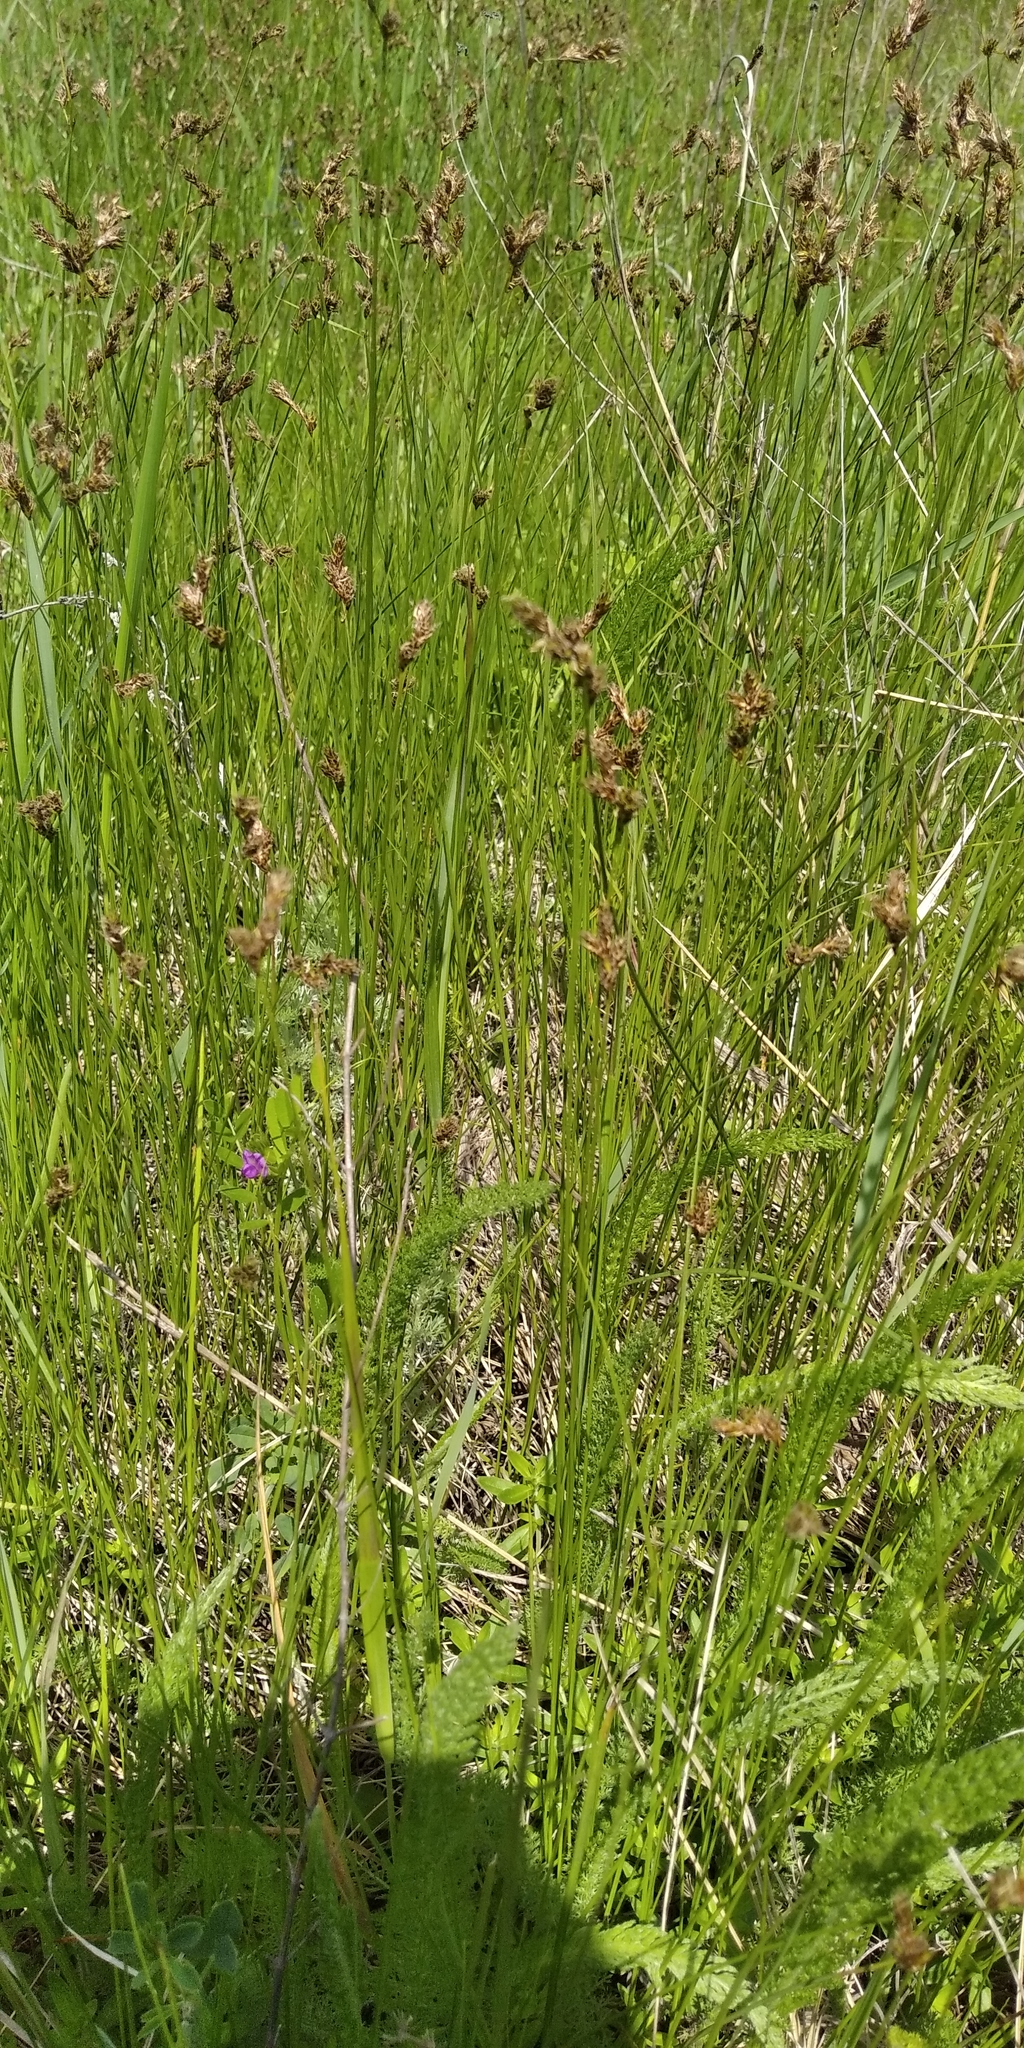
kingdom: Plantae
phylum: Tracheophyta
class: Liliopsida
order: Poales
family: Cyperaceae
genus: Carex
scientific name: Carex praecox
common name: Early sedge
